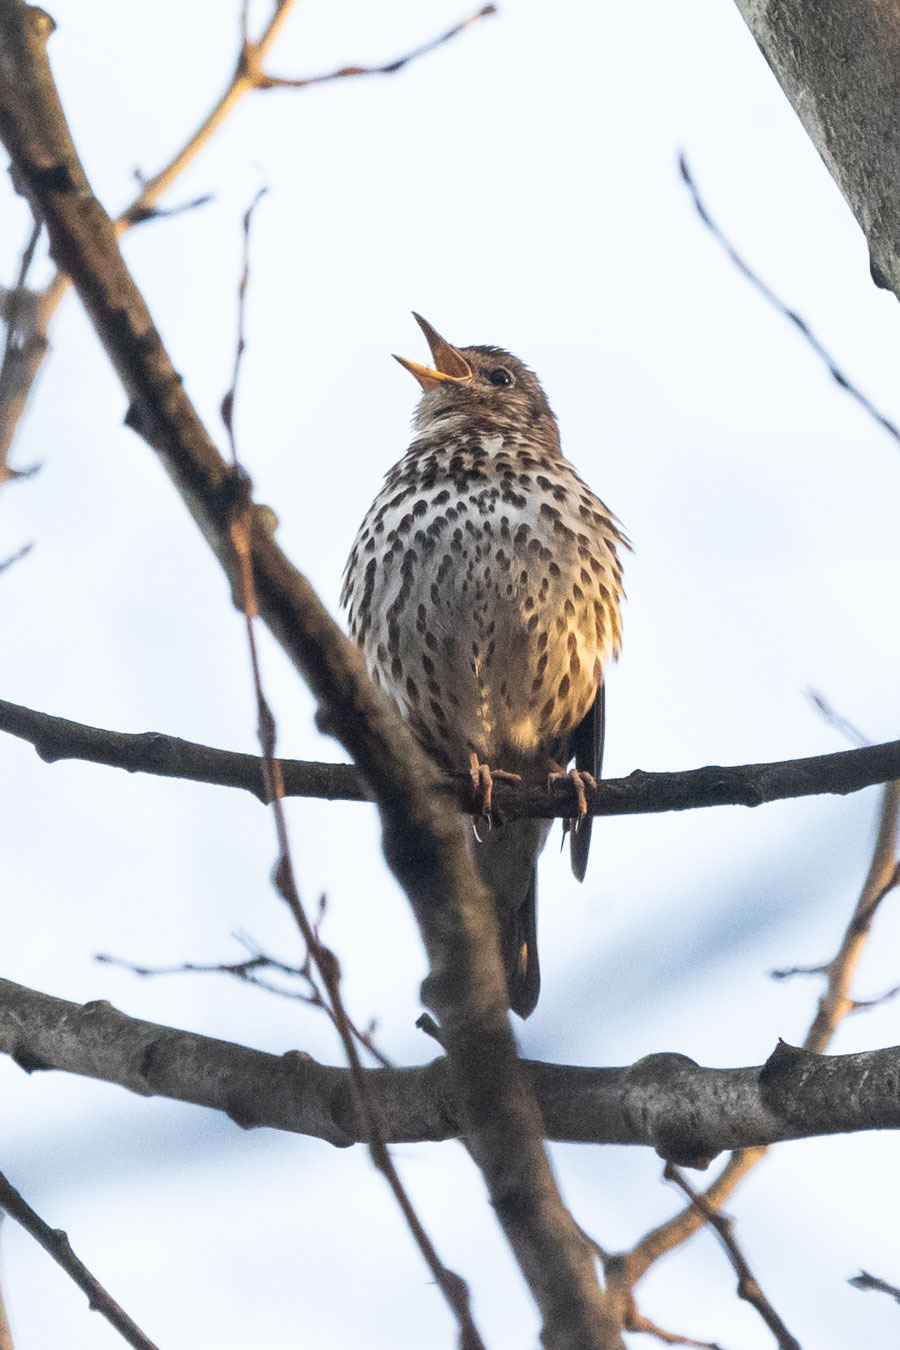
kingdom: Animalia
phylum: Chordata
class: Aves
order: Passeriformes
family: Turdidae
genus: Turdus
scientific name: Turdus philomelos
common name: Song thrush
